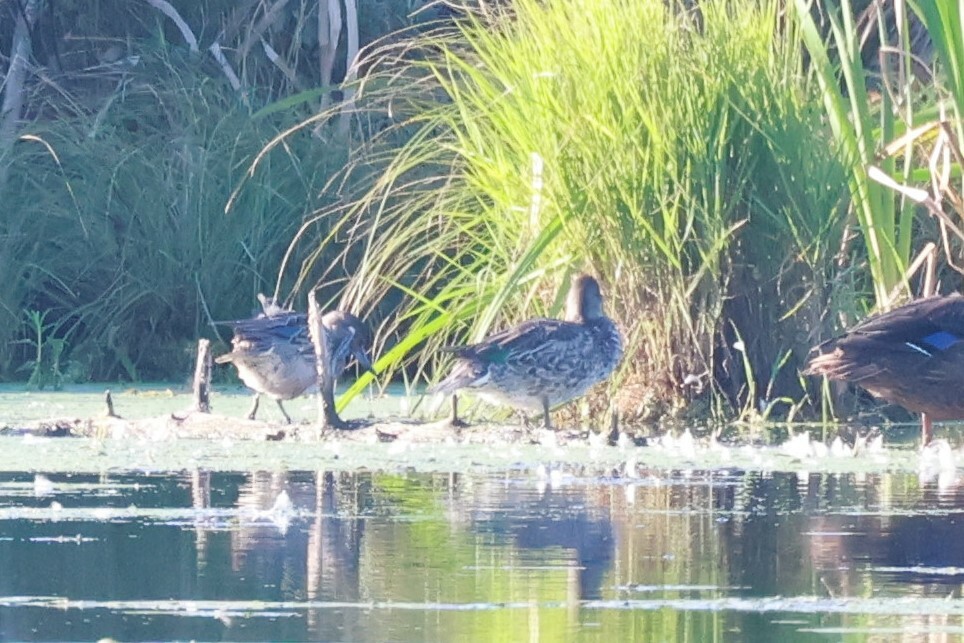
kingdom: Animalia
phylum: Chordata
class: Aves
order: Anseriformes
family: Anatidae
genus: Anas
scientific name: Anas crecca
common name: Eurasian teal
